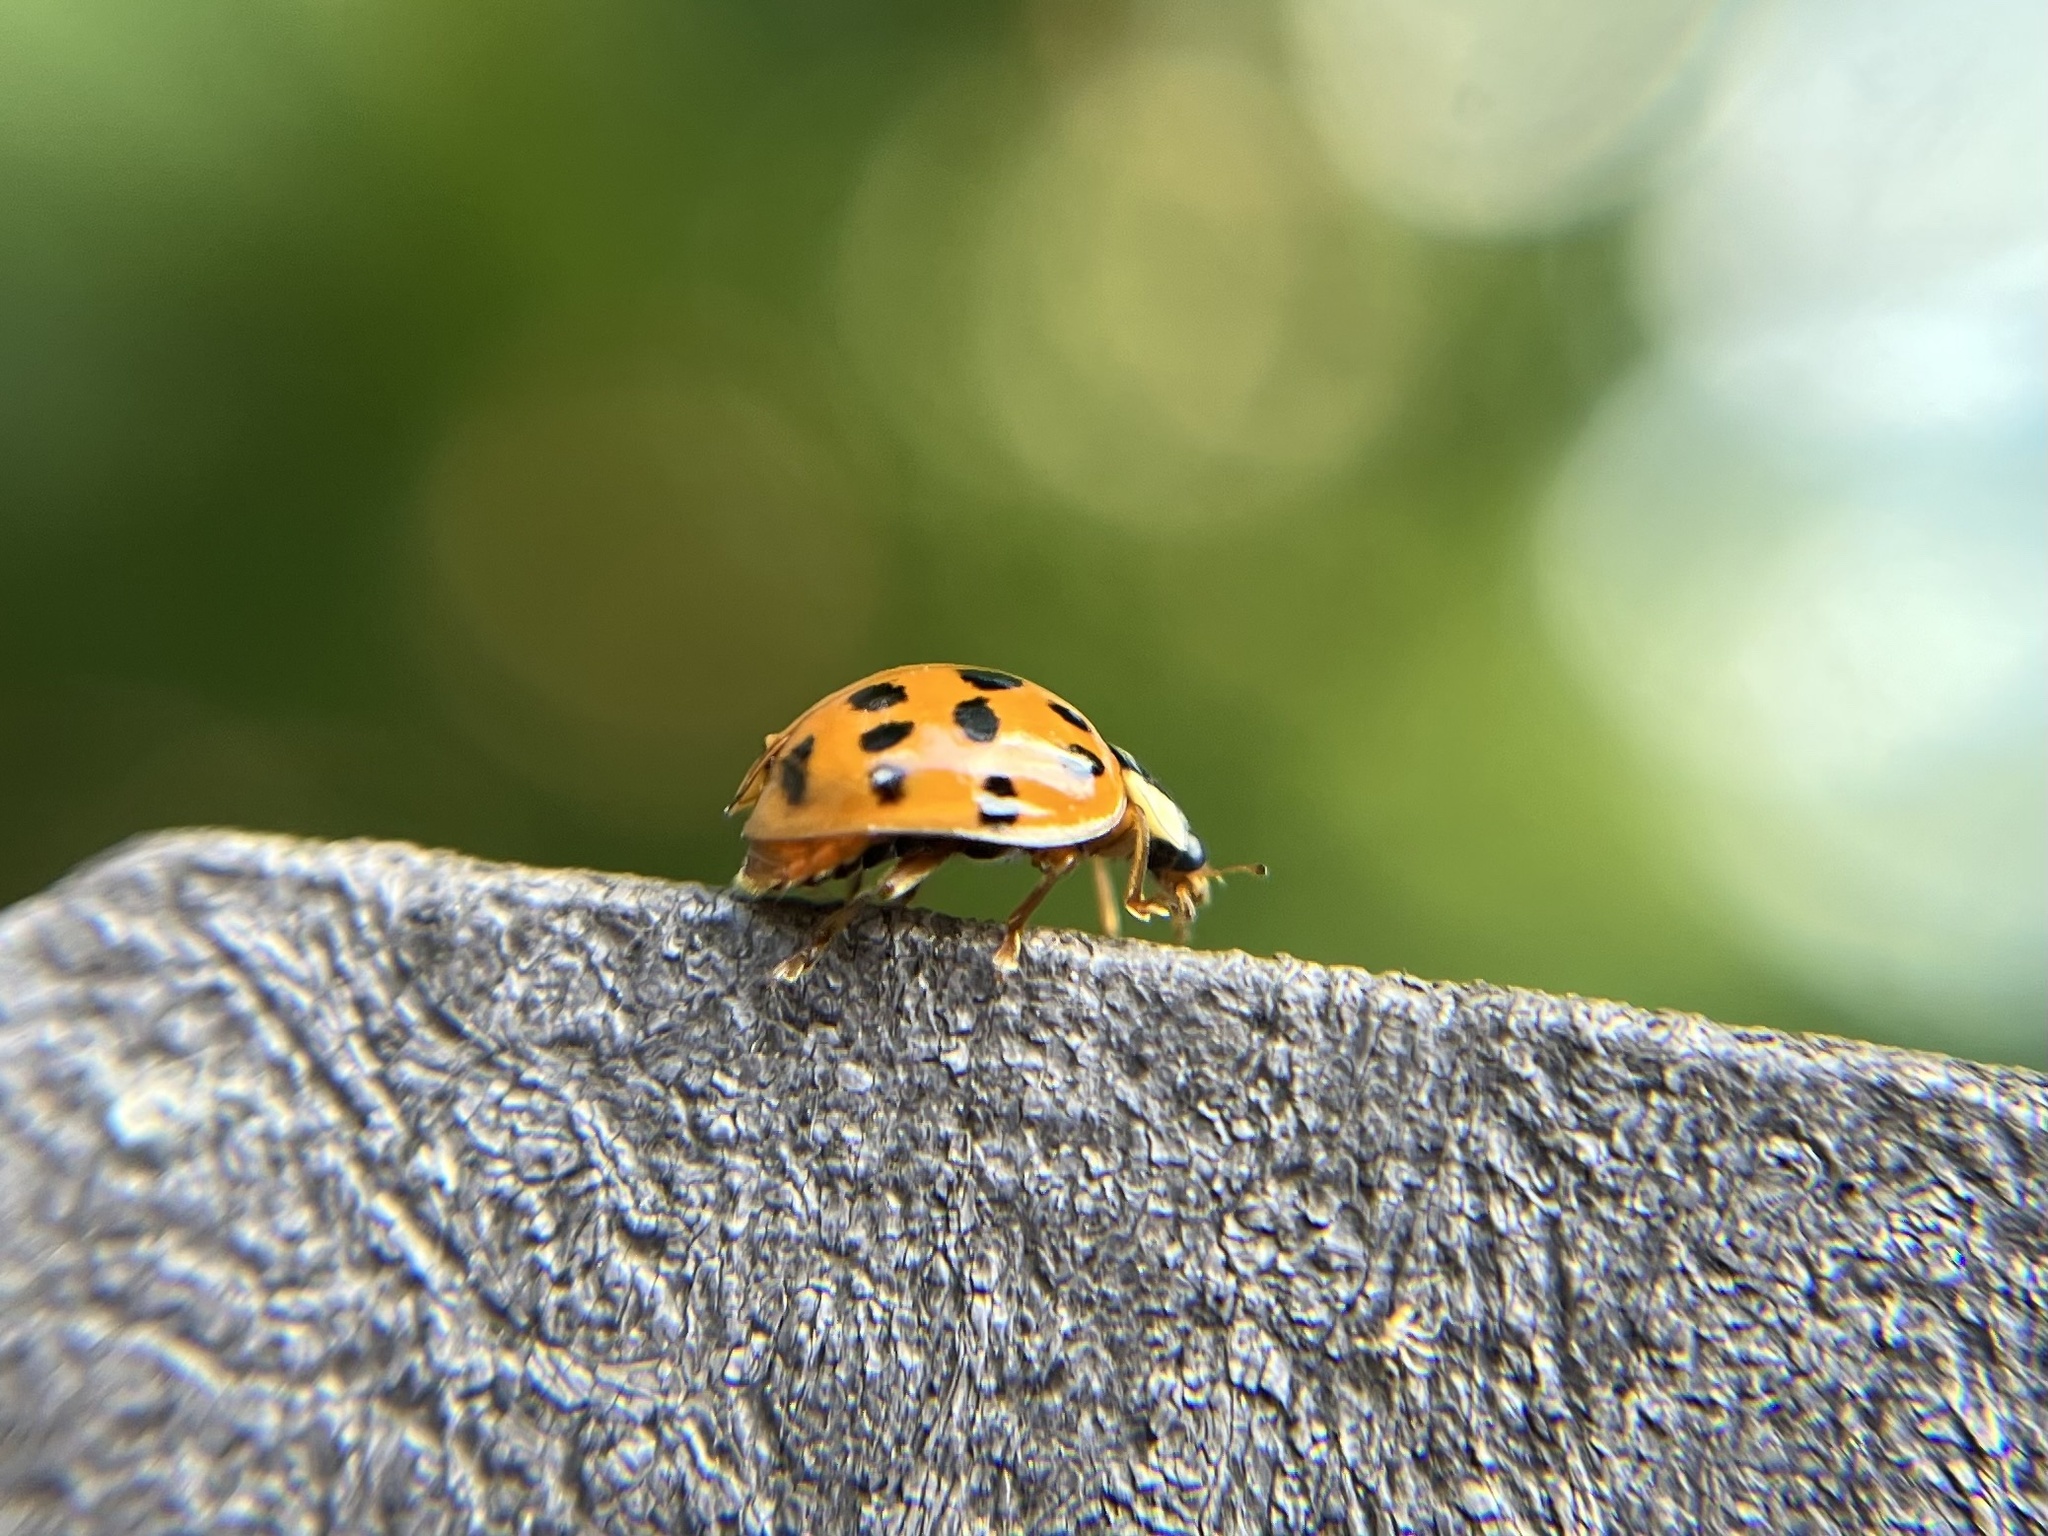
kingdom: Animalia
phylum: Arthropoda
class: Insecta
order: Coleoptera
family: Coccinellidae
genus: Harmonia
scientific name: Harmonia axyridis
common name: Harlequin ladybird
